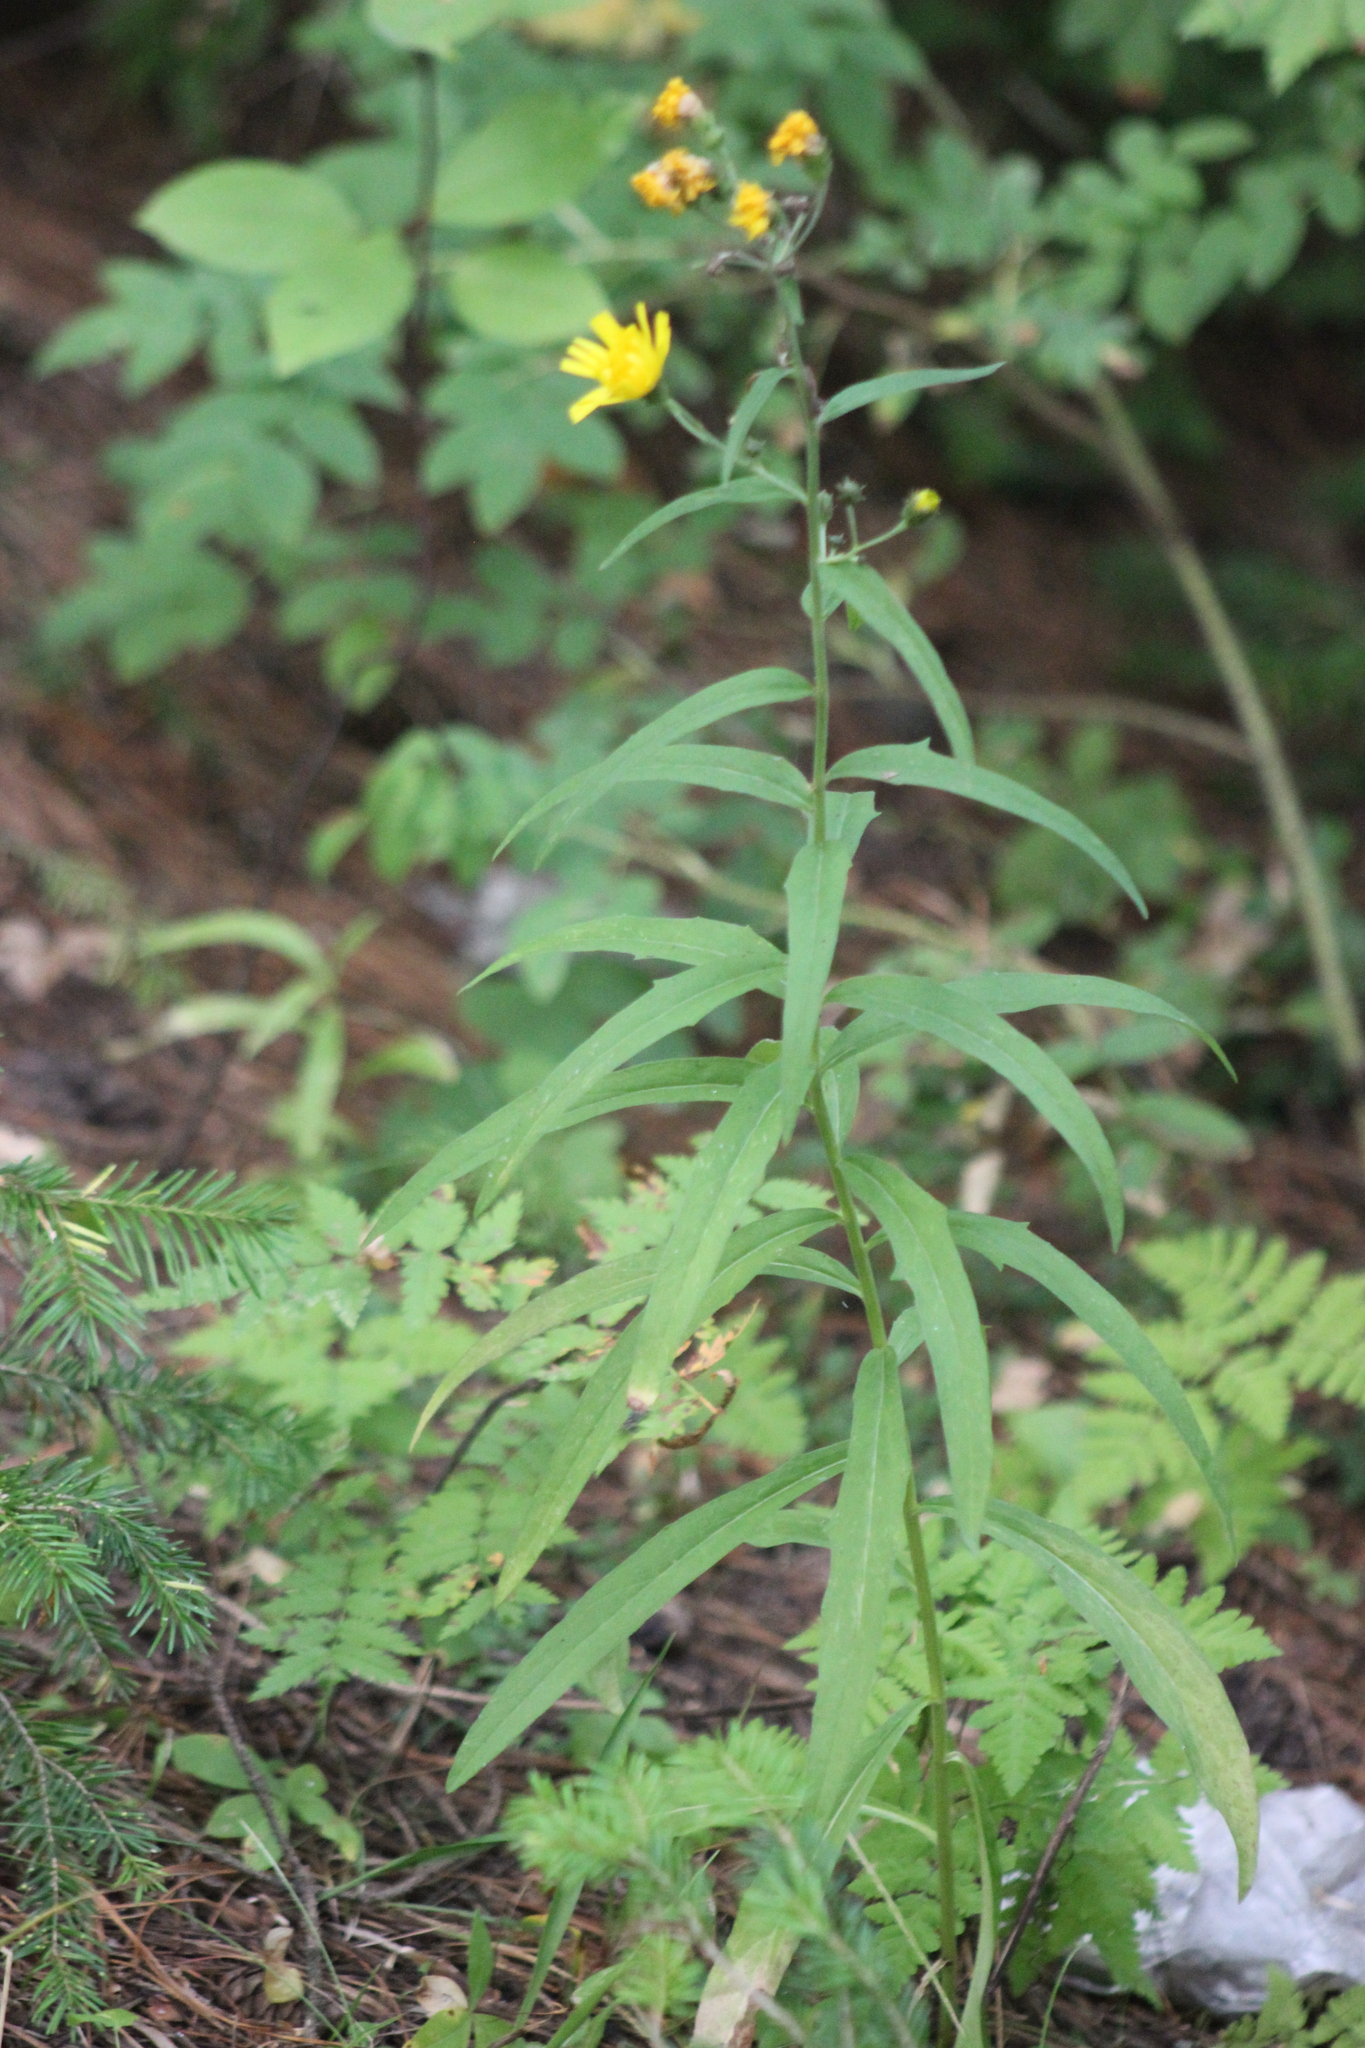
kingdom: Plantae
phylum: Tracheophyta
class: Magnoliopsida
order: Asterales
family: Asteraceae
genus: Hieracium
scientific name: Hieracium umbellatum
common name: Northern hawkweed
